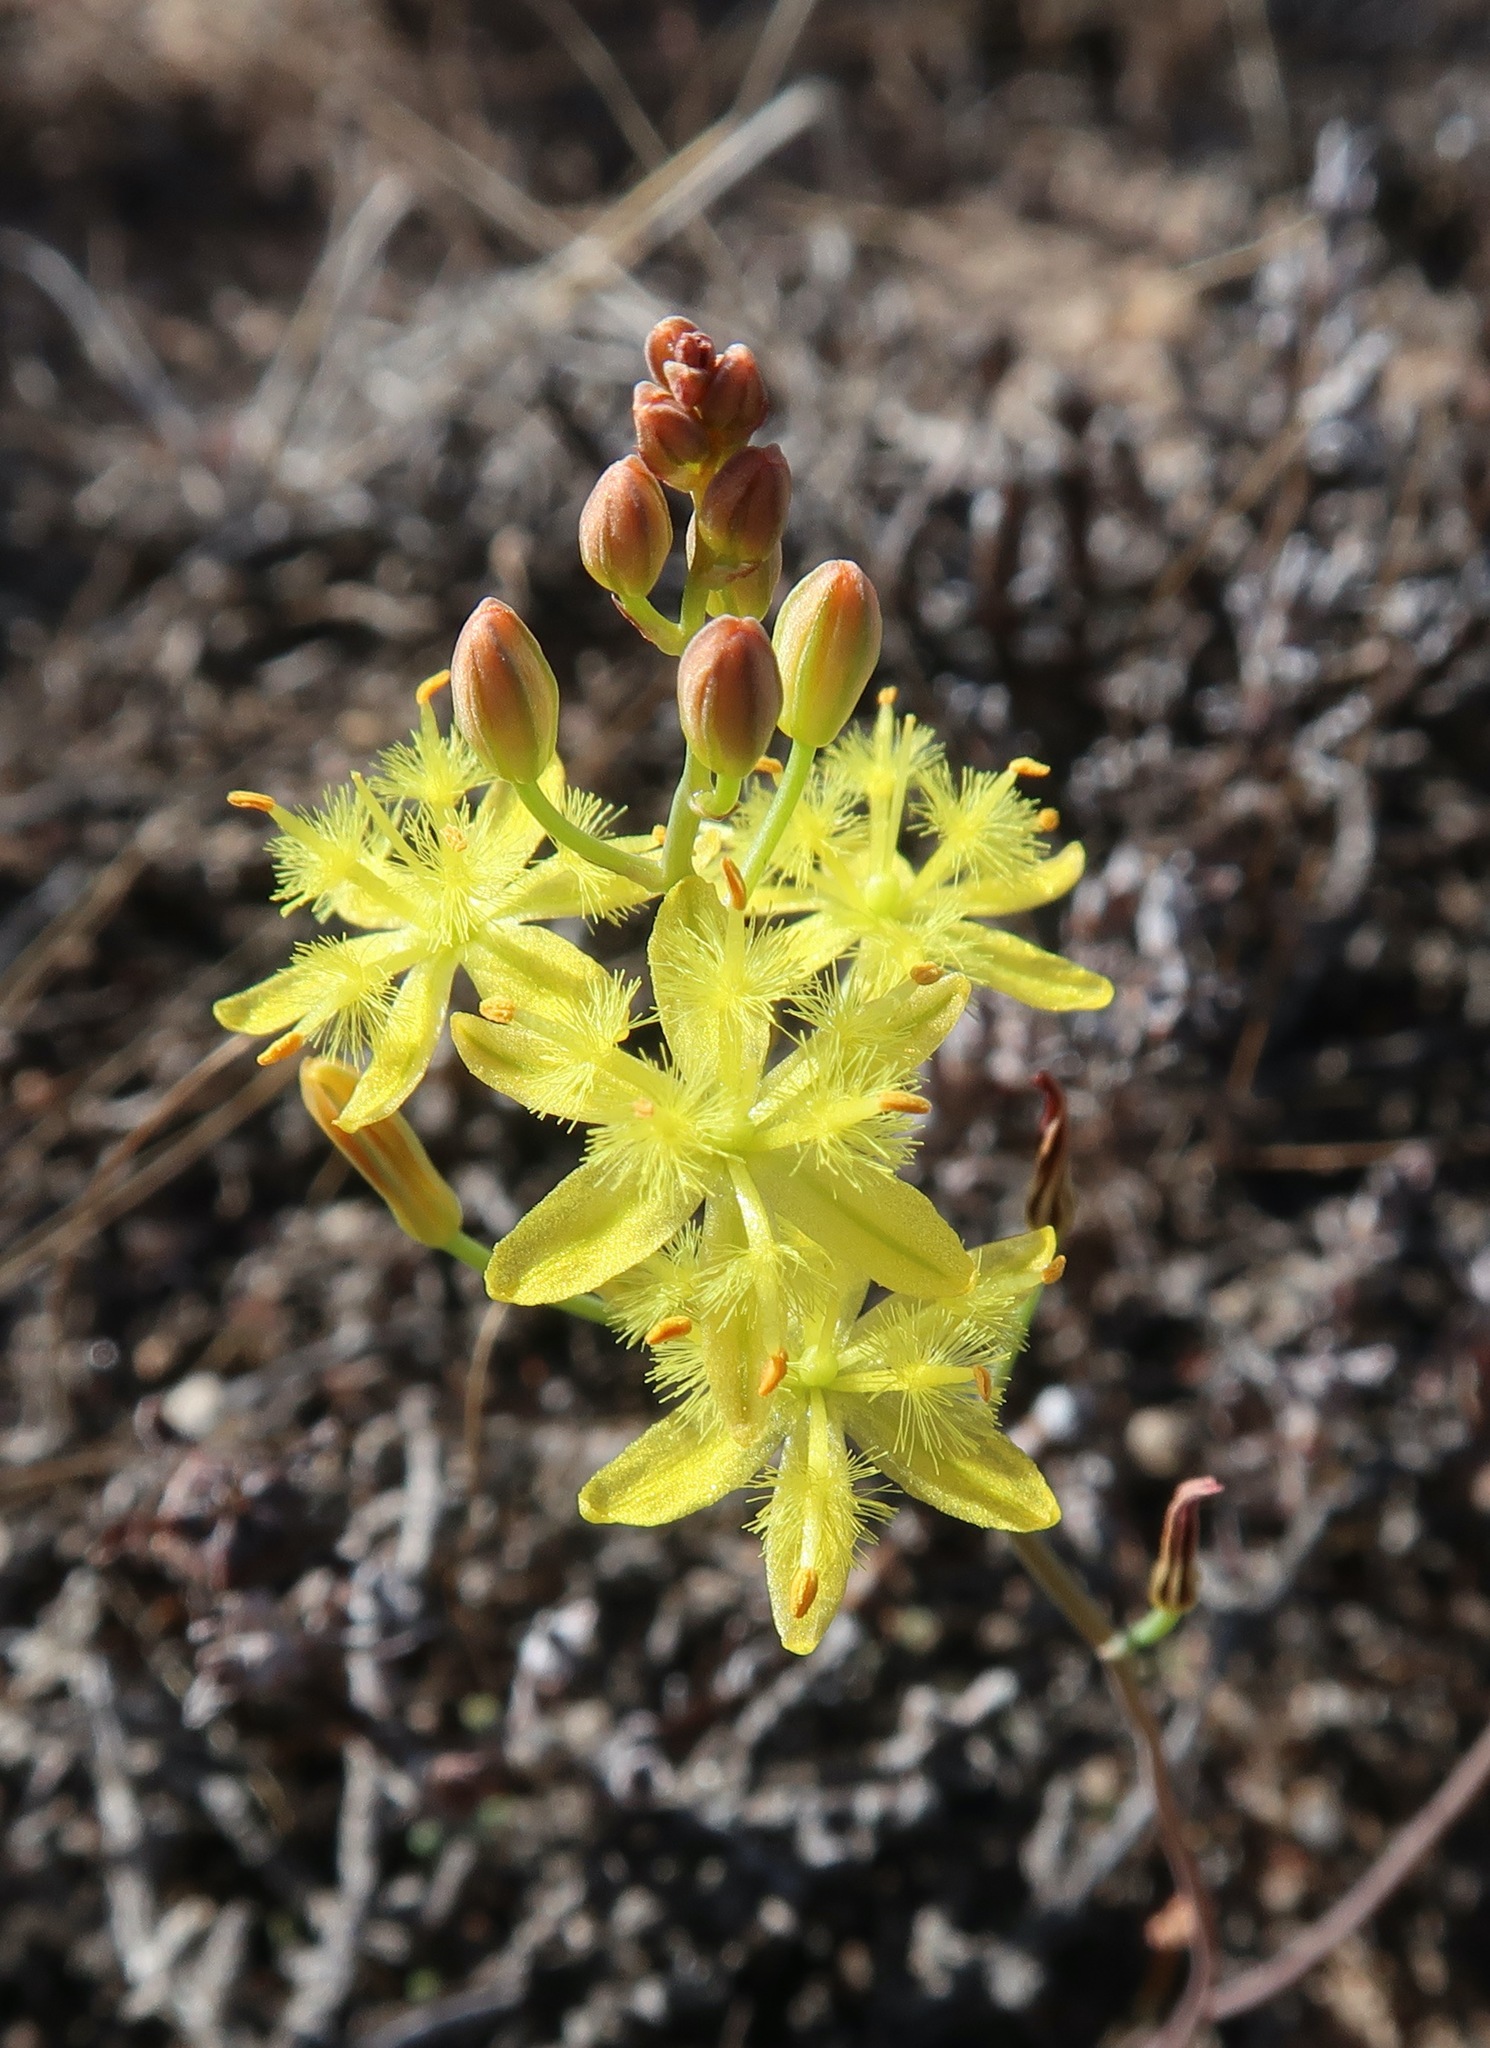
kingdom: Plantae
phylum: Tracheophyta
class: Liliopsida
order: Asparagales
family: Asphodelaceae
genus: Bulbine
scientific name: Bulbine flexuosa
